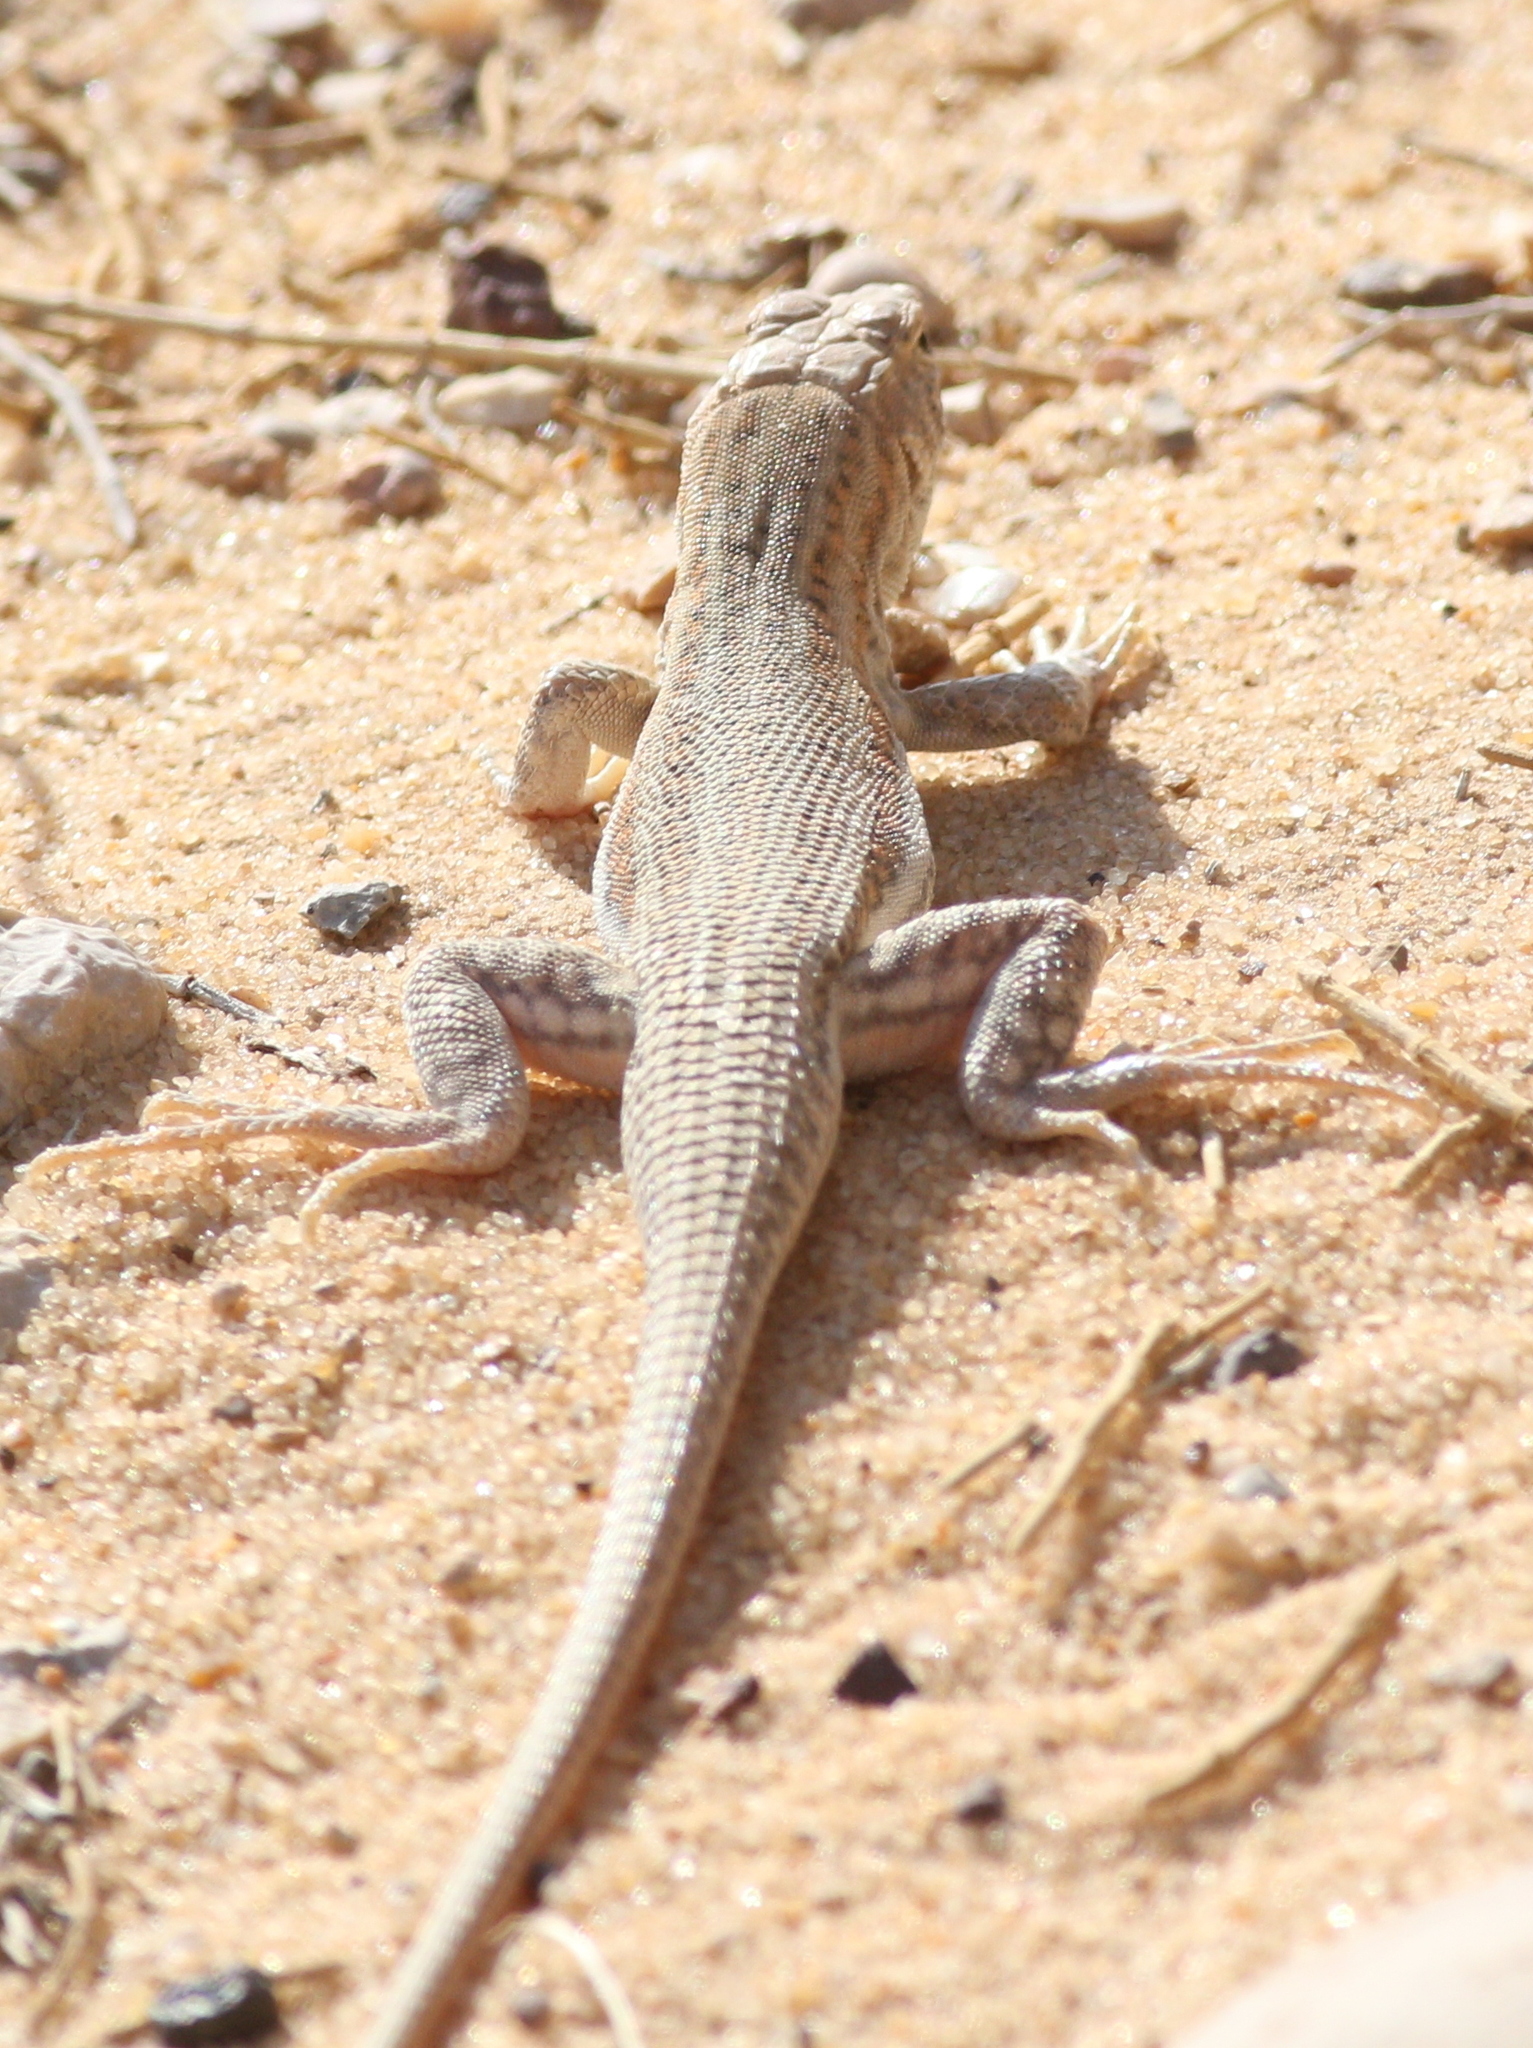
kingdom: Animalia
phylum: Chordata
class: Squamata
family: Lacertidae
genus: Acanthodactylus
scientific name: Acanthodactylus boskianus
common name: Bosc’s fringe-toed lizard
